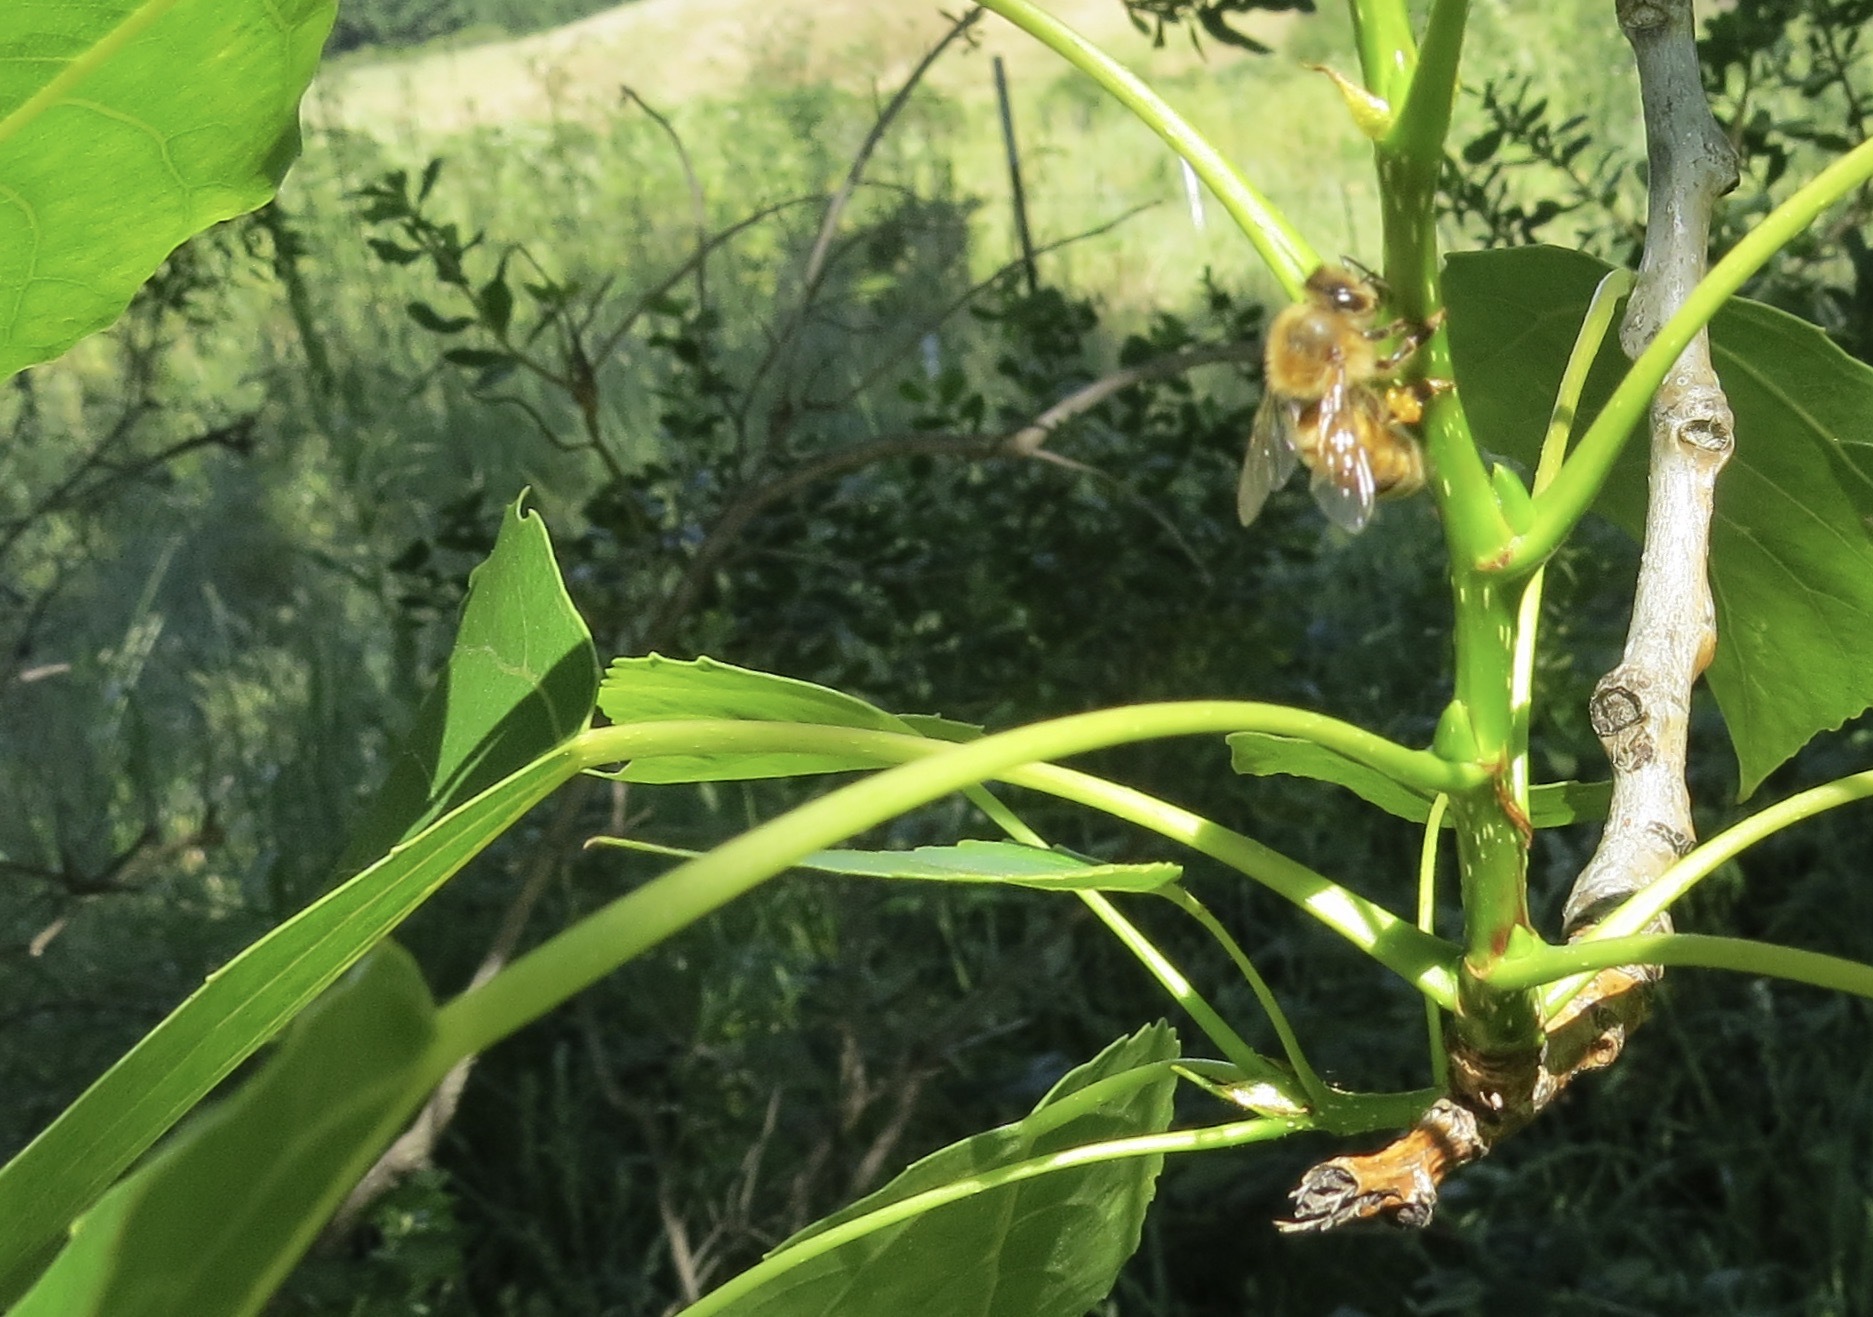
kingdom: Animalia
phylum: Arthropoda
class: Insecta
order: Hymenoptera
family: Apidae
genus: Apis
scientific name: Apis mellifera
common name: Honey bee
